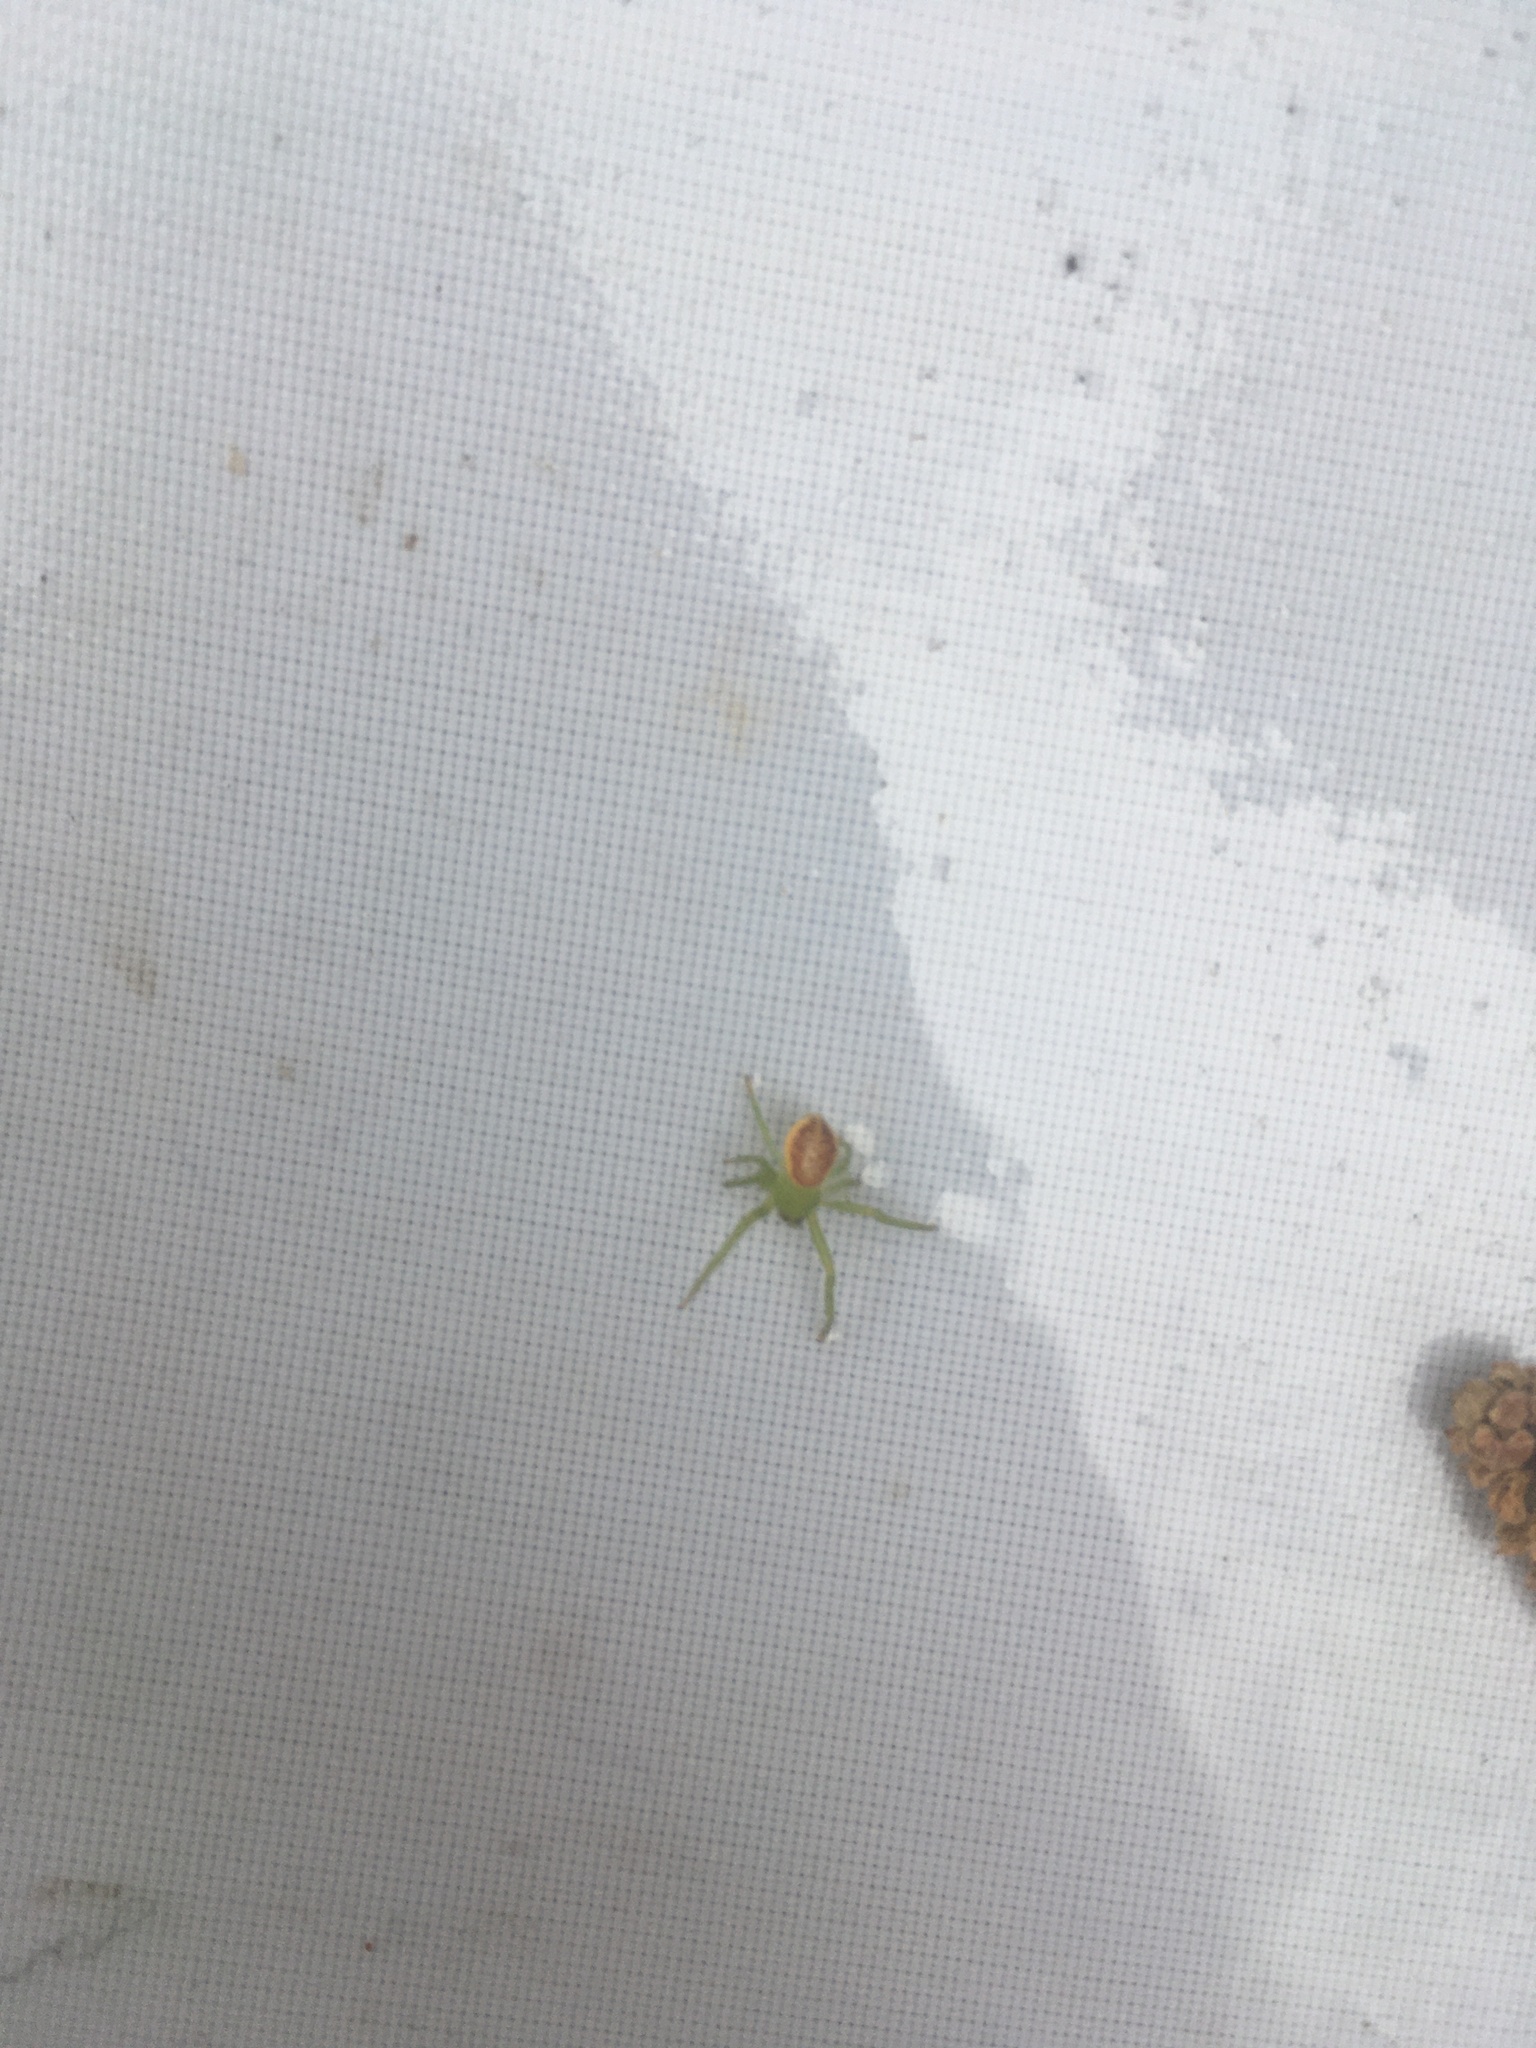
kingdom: Animalia
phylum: Arthropoda
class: Arachnida
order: Araneae
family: Thomisidae
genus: Diaea
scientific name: Diaea dorsata
